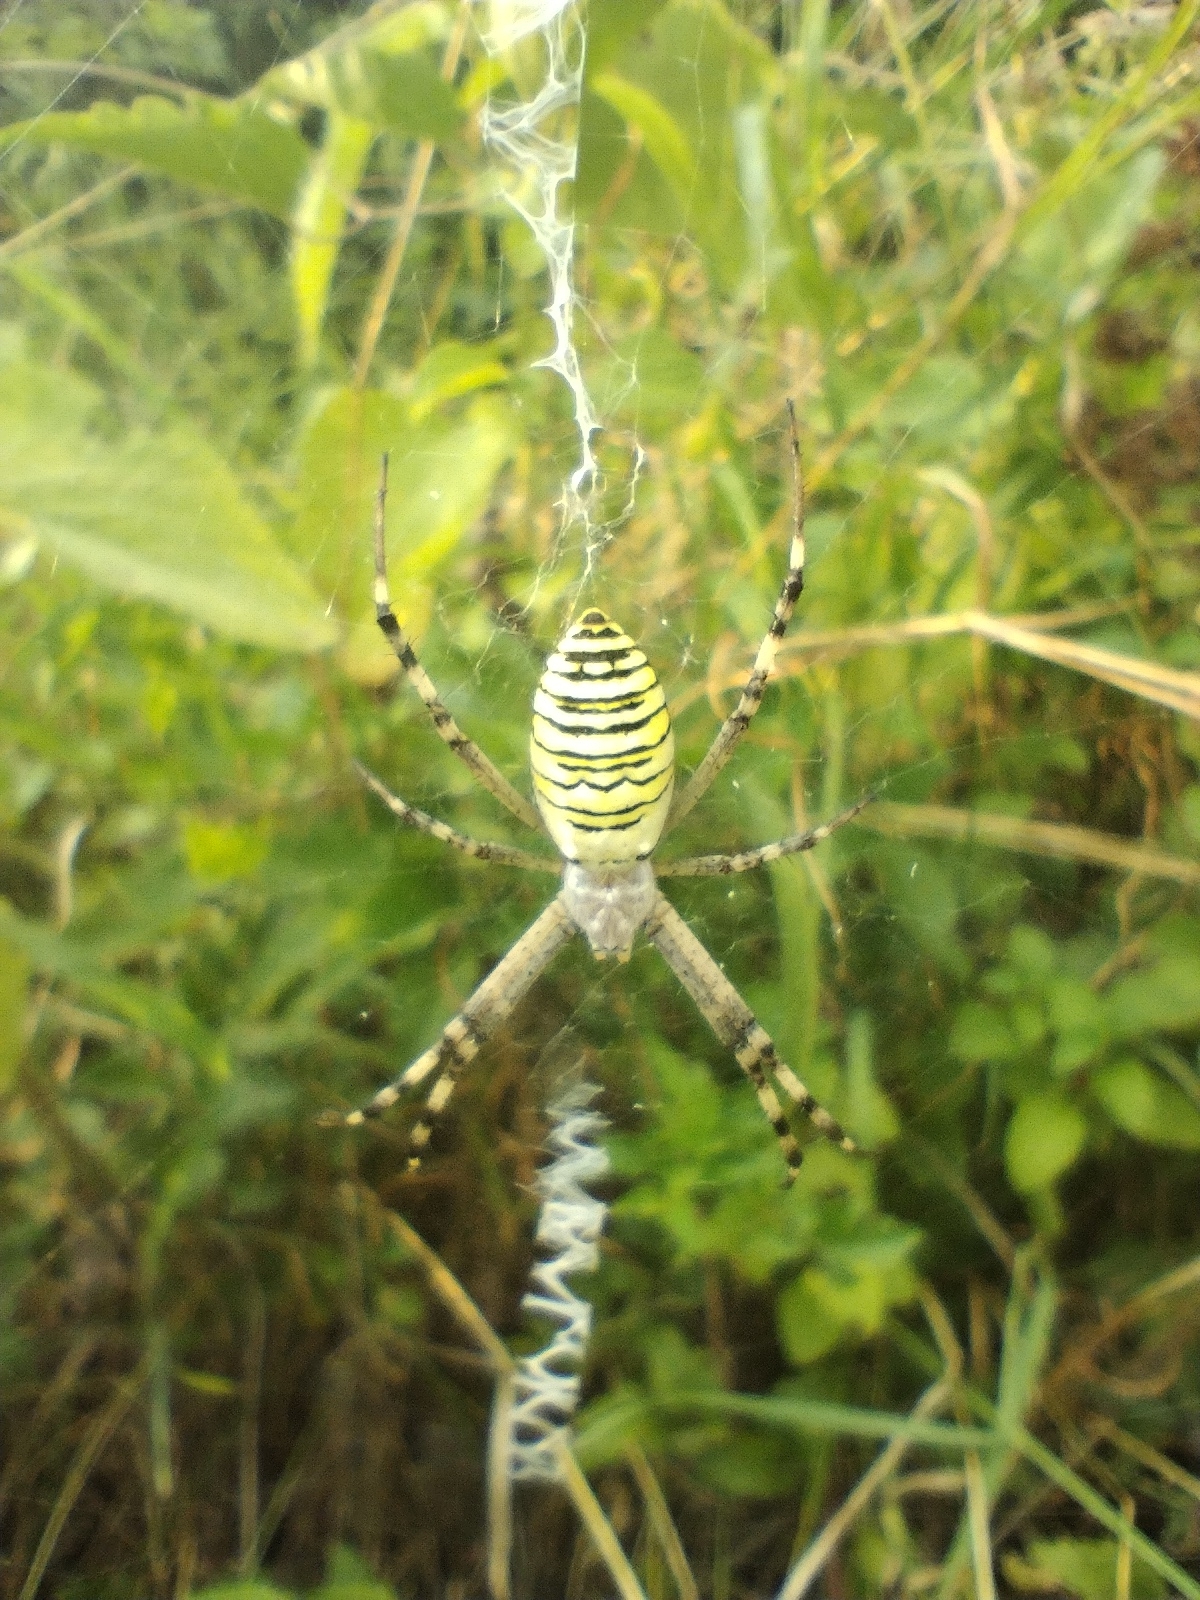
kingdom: Animalia
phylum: Arthropoda
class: Arachnida
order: Araneae
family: Araneidae
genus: Argiope
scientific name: Argiope bruennichi
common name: Wasp spider
